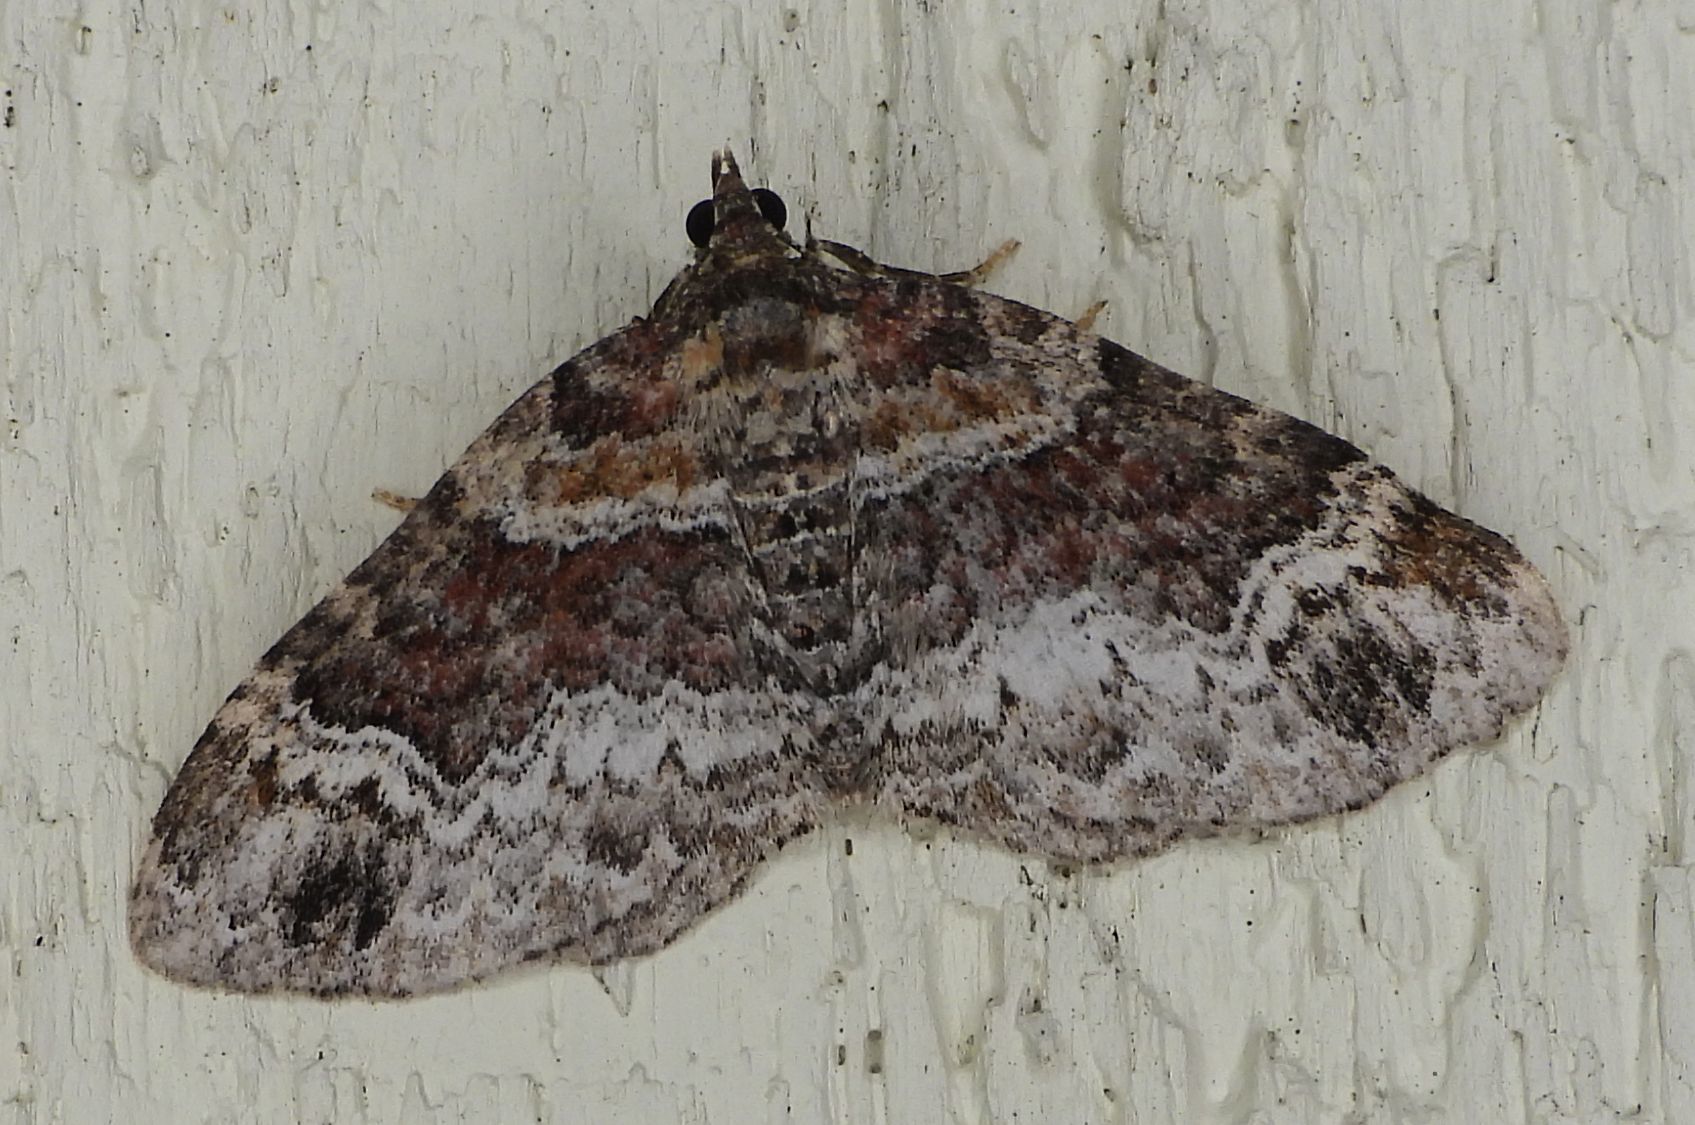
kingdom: Animalia
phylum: Arthropoda
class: Insecta
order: Lepidoptera
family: Geometridae
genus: Xanthorhoe
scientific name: Xanthorhoe ferrugata
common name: Dark-barred twin-spot carpet
